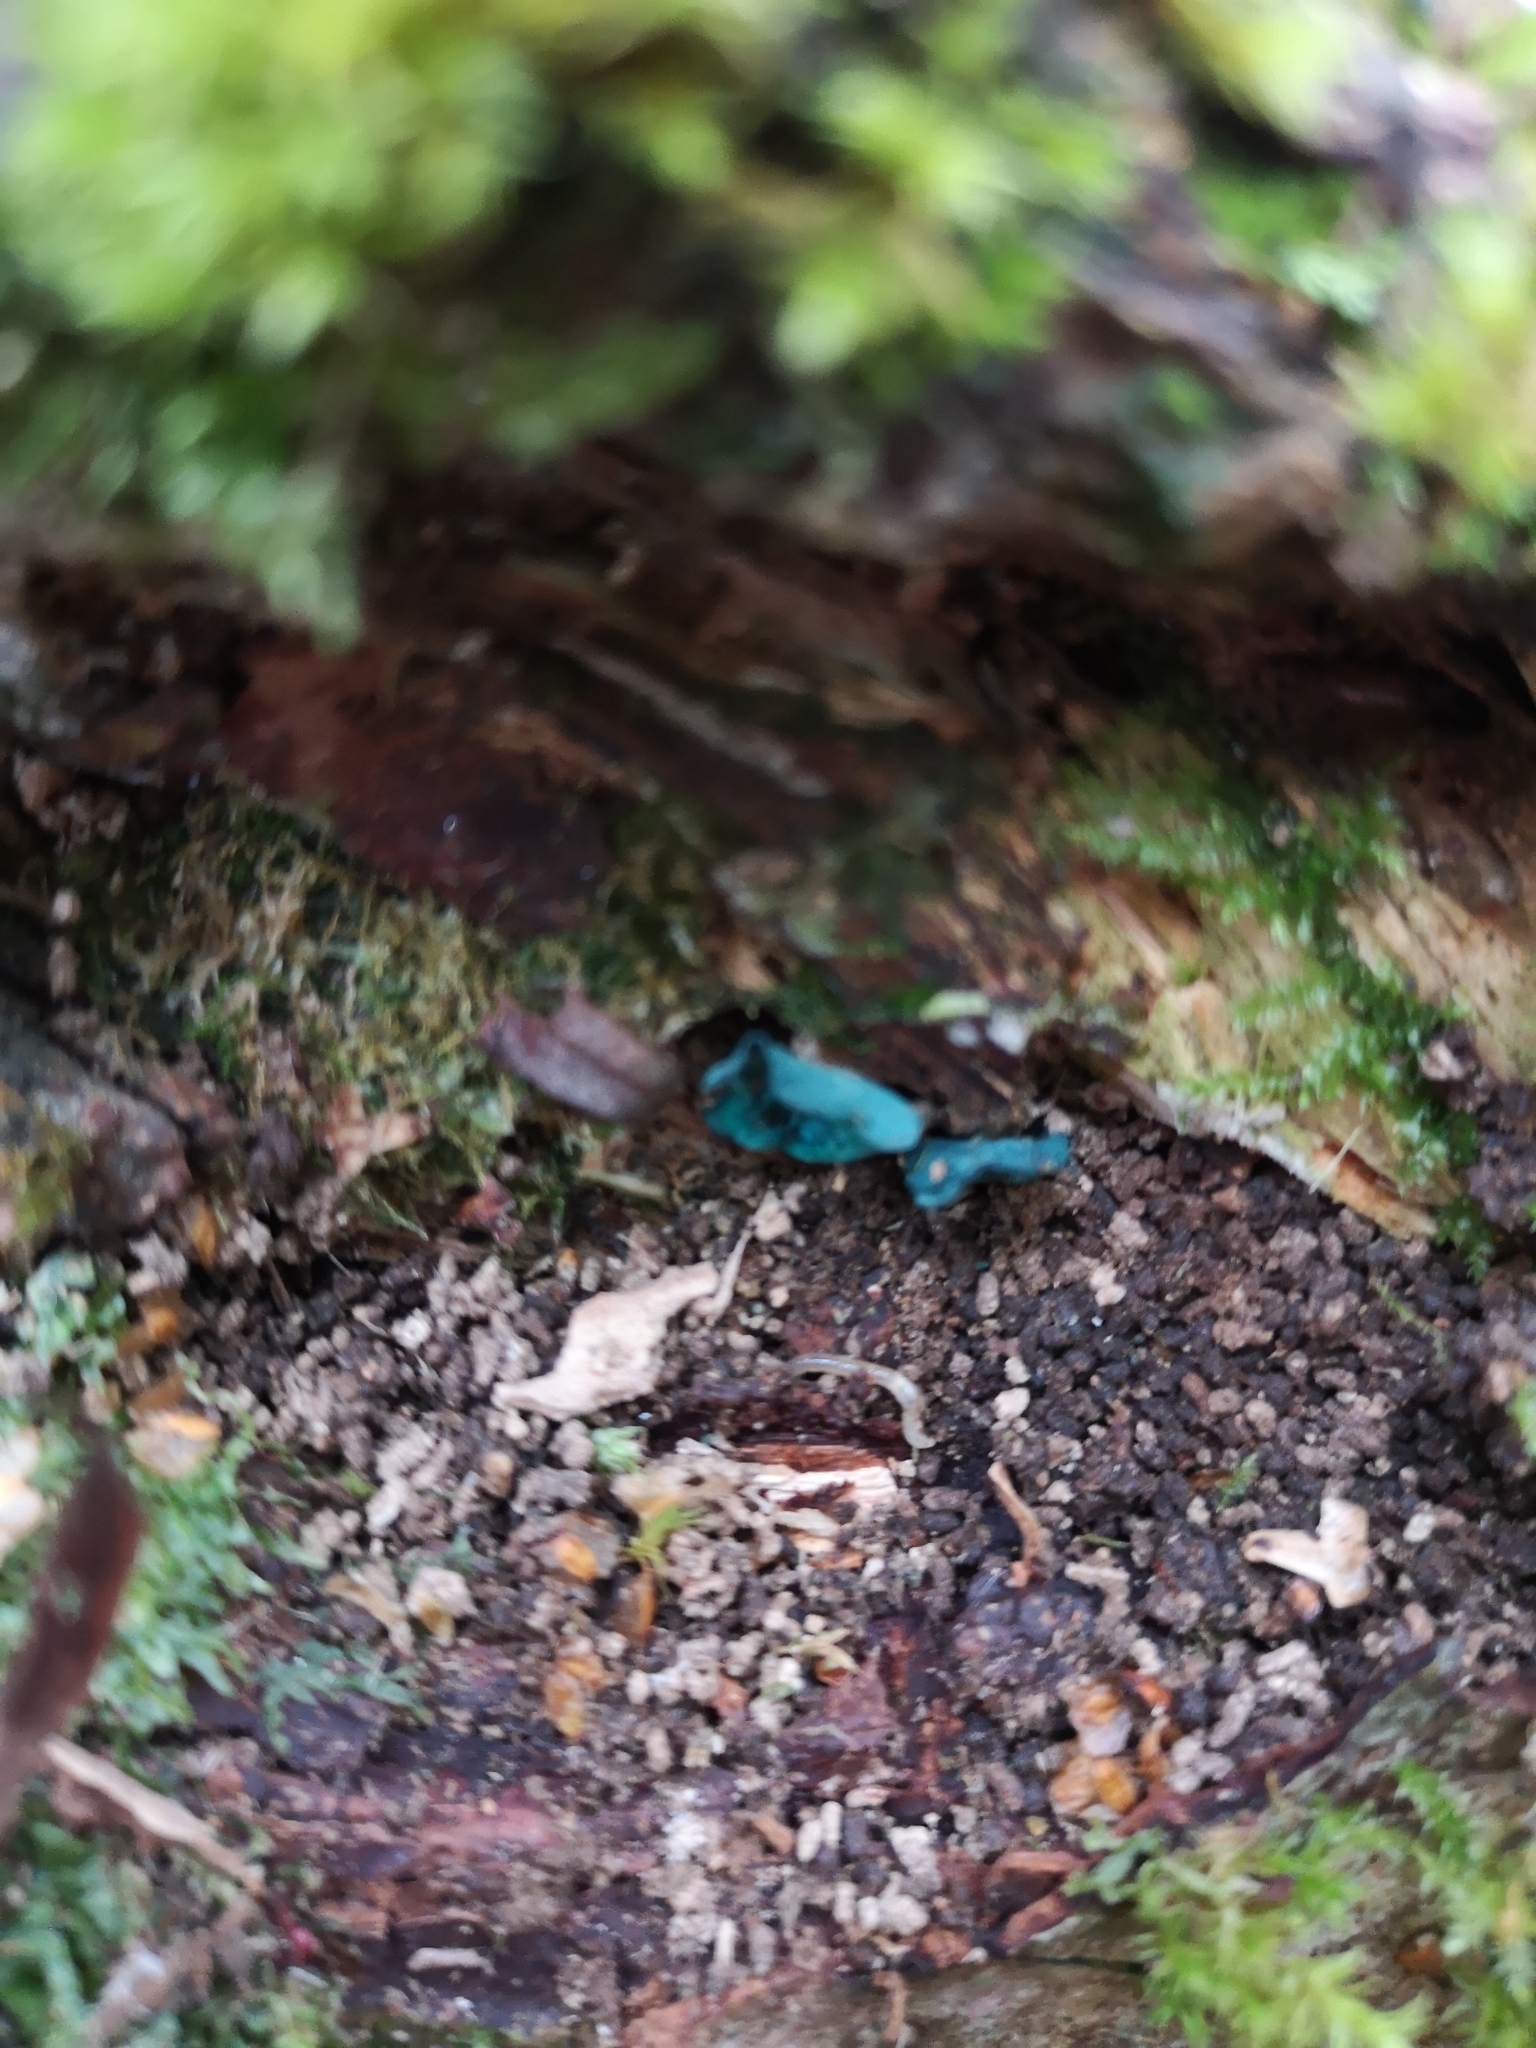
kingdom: Fungi
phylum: Ascomycota
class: Leotiomycetes
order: Helotiales
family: Chlorociboriaceae
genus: Chlorociboria
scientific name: Chlorociboria aeruginascens
